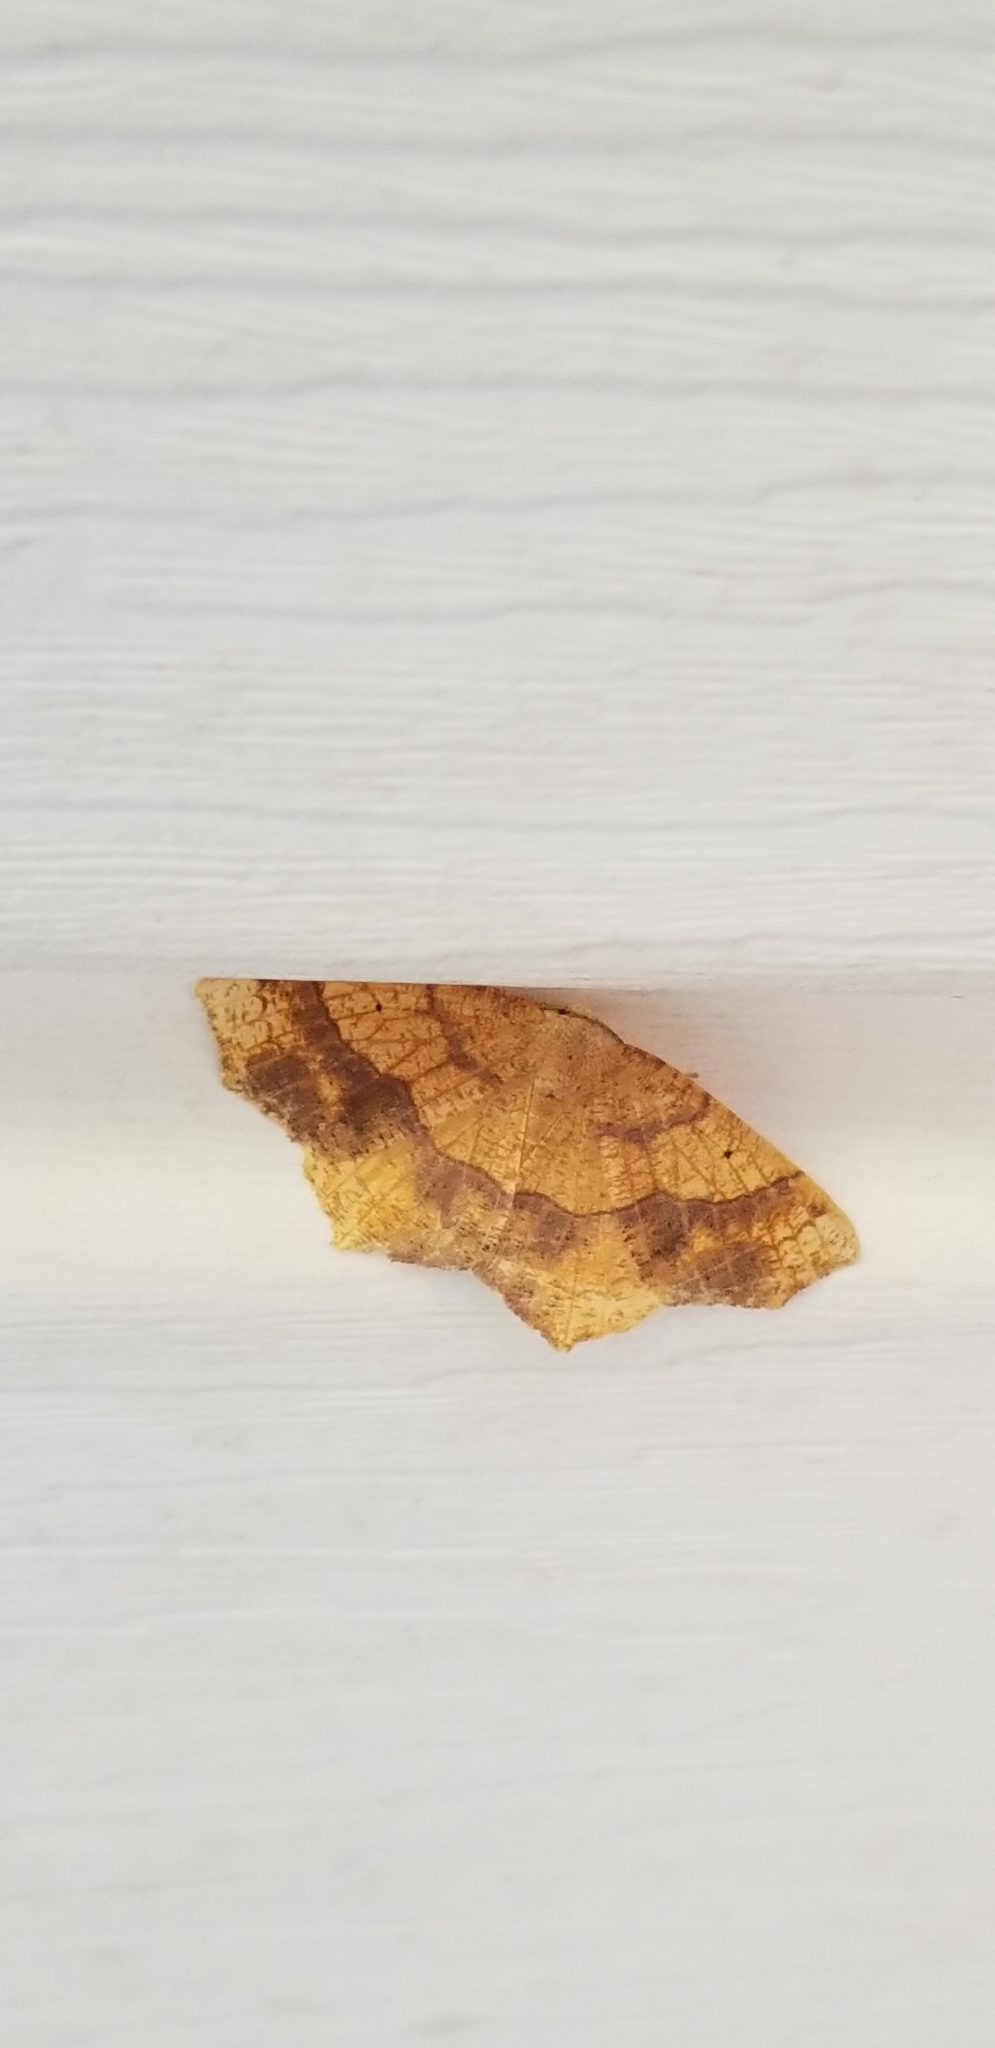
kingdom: Animalia
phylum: Arthropoda
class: Insecta
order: Lepidoptera
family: Geometridae
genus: Besma
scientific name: Besma quercivoraria
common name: Oak besma
